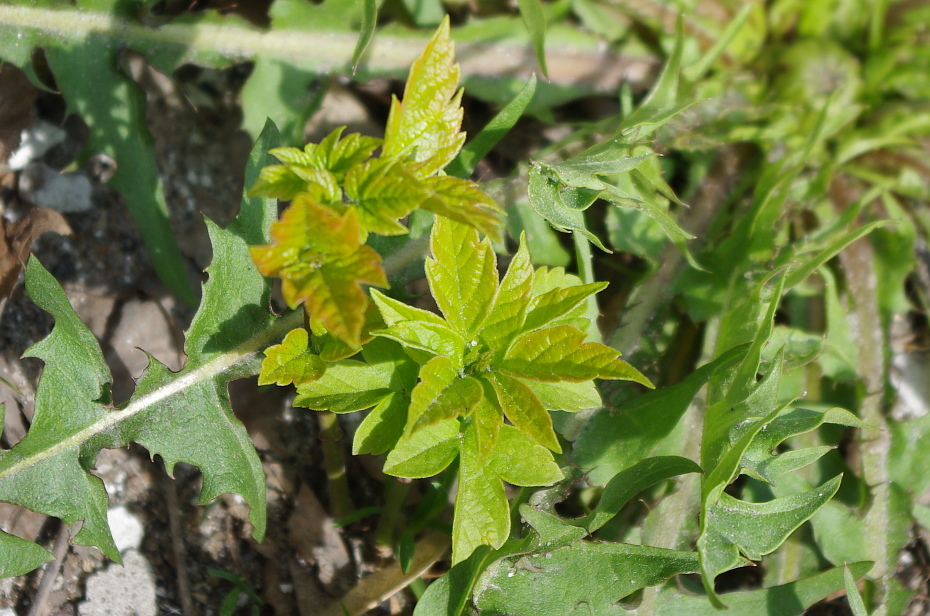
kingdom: Plantae
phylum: Tracheophyta
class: Magnoliopsida
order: Sapindales
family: Sapindaceae
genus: Acer
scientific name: Acer negundo
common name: Ashleaf maple
